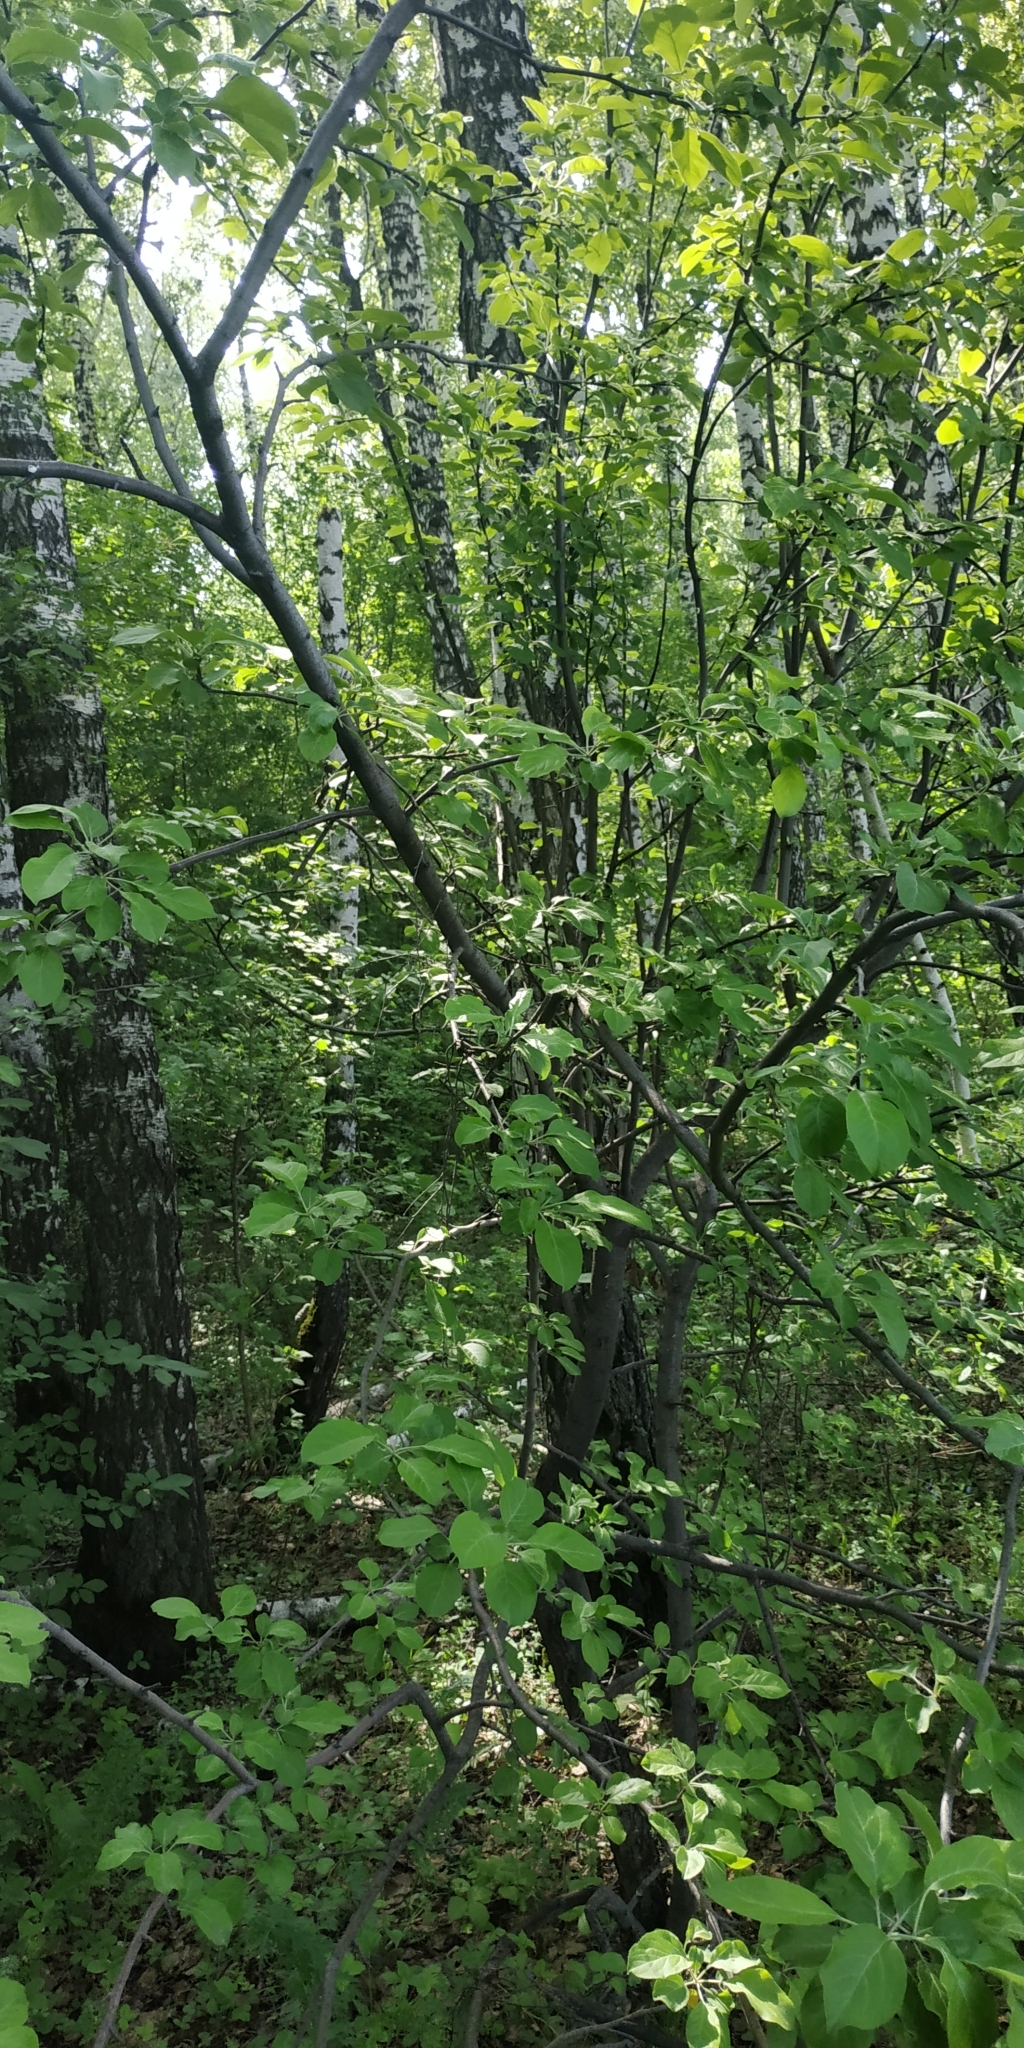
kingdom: Plantae
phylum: Tracheophyta
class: Magnoliopsida
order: Rosales
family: Rosaceae
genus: Amelanchier
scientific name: Amelanchier alnifolia
